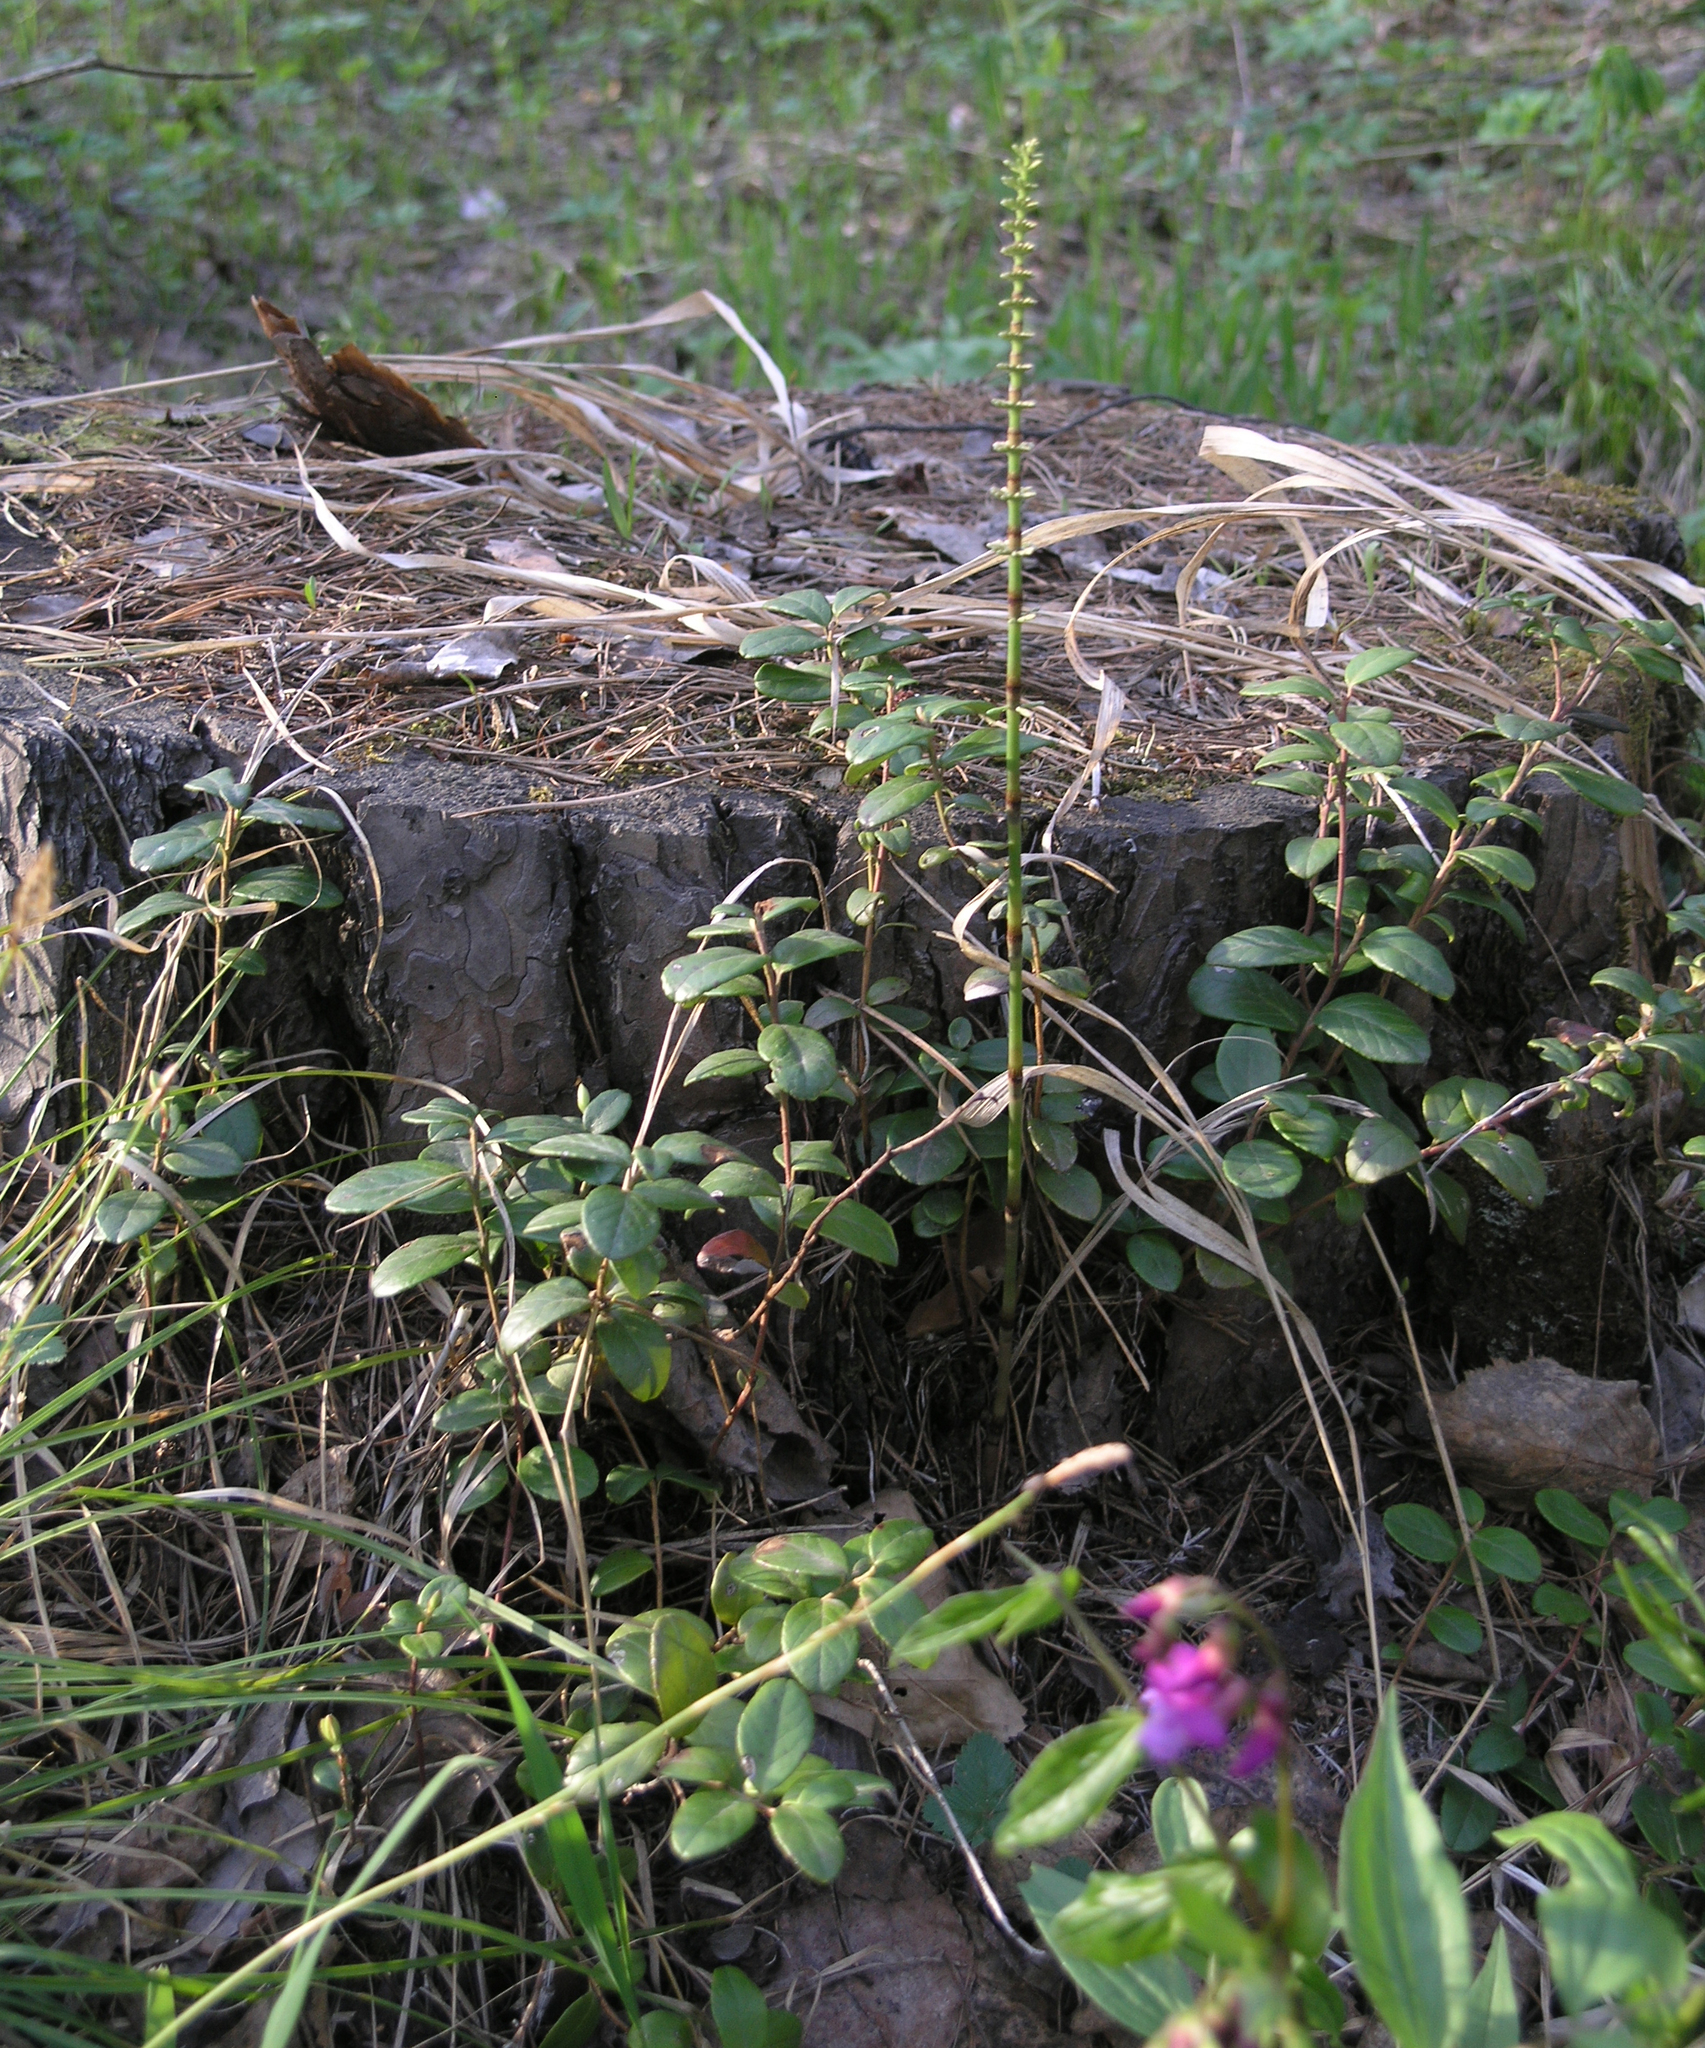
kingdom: Plantae
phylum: Tracheophyta
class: Magnoliopsida
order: Ericales
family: Ericaceae
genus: Vaccinium
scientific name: Vaccinium vitis-idaea
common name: Cowberry
